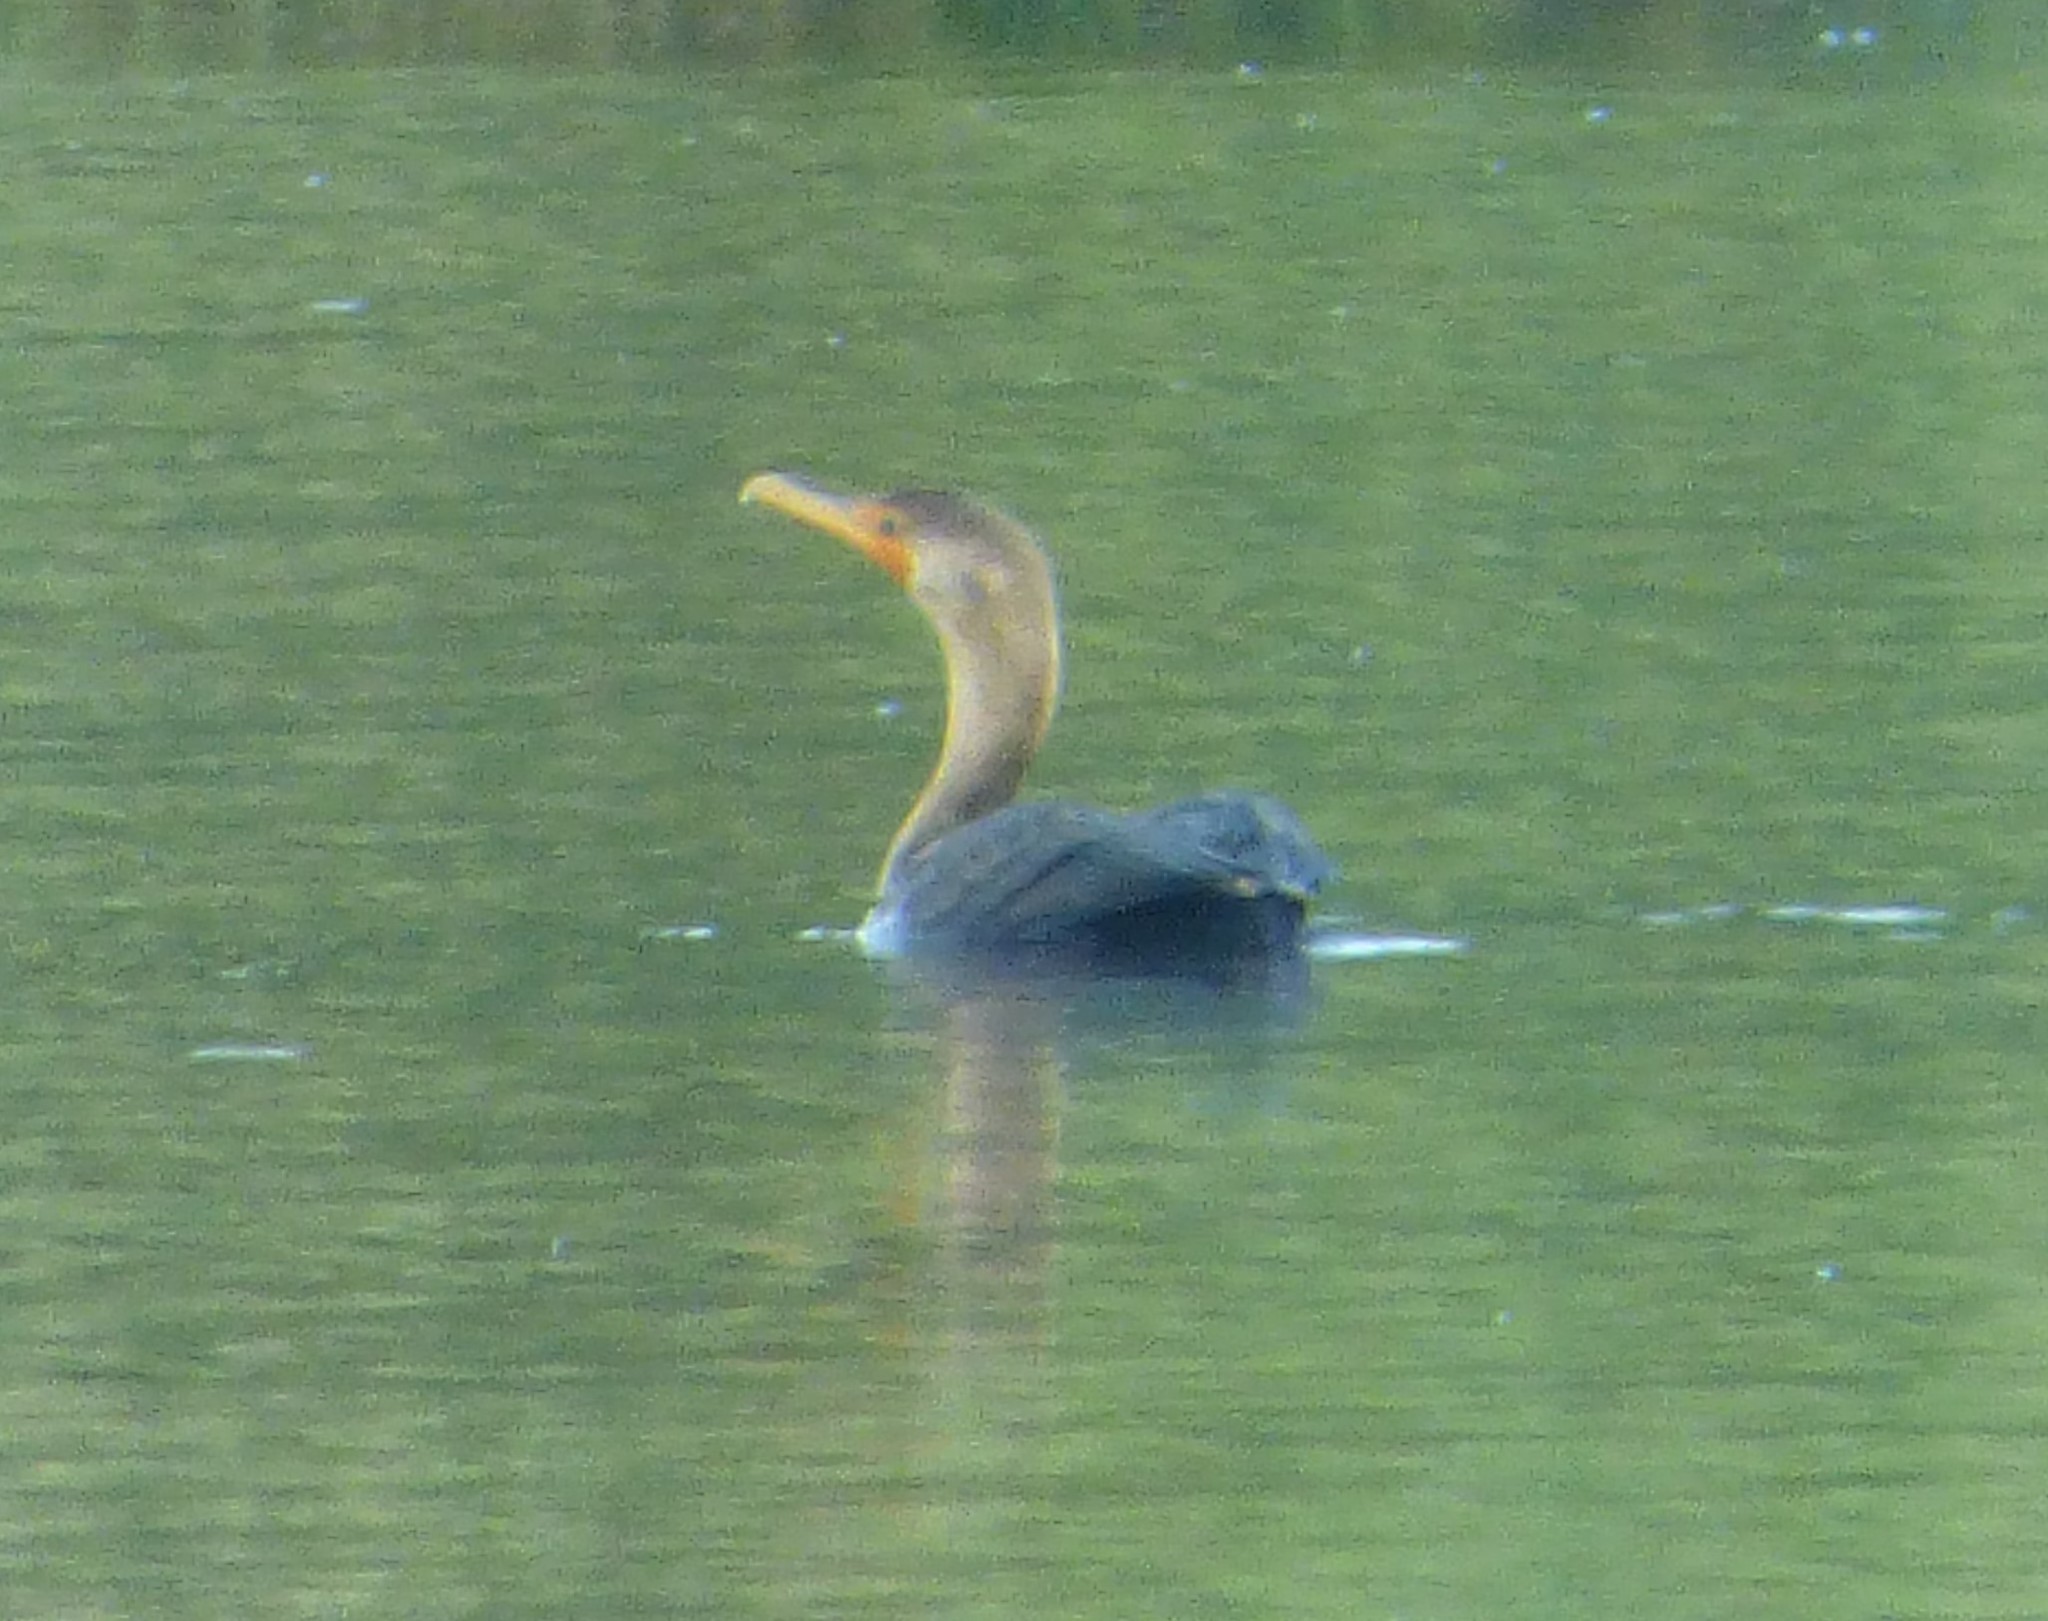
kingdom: Animalia
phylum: Chordata
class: Aves
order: Suliformes
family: Phalacrocoracidae
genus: Phalacrocorax
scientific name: Phalacrocorax auritus
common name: Double-crested cormorant
